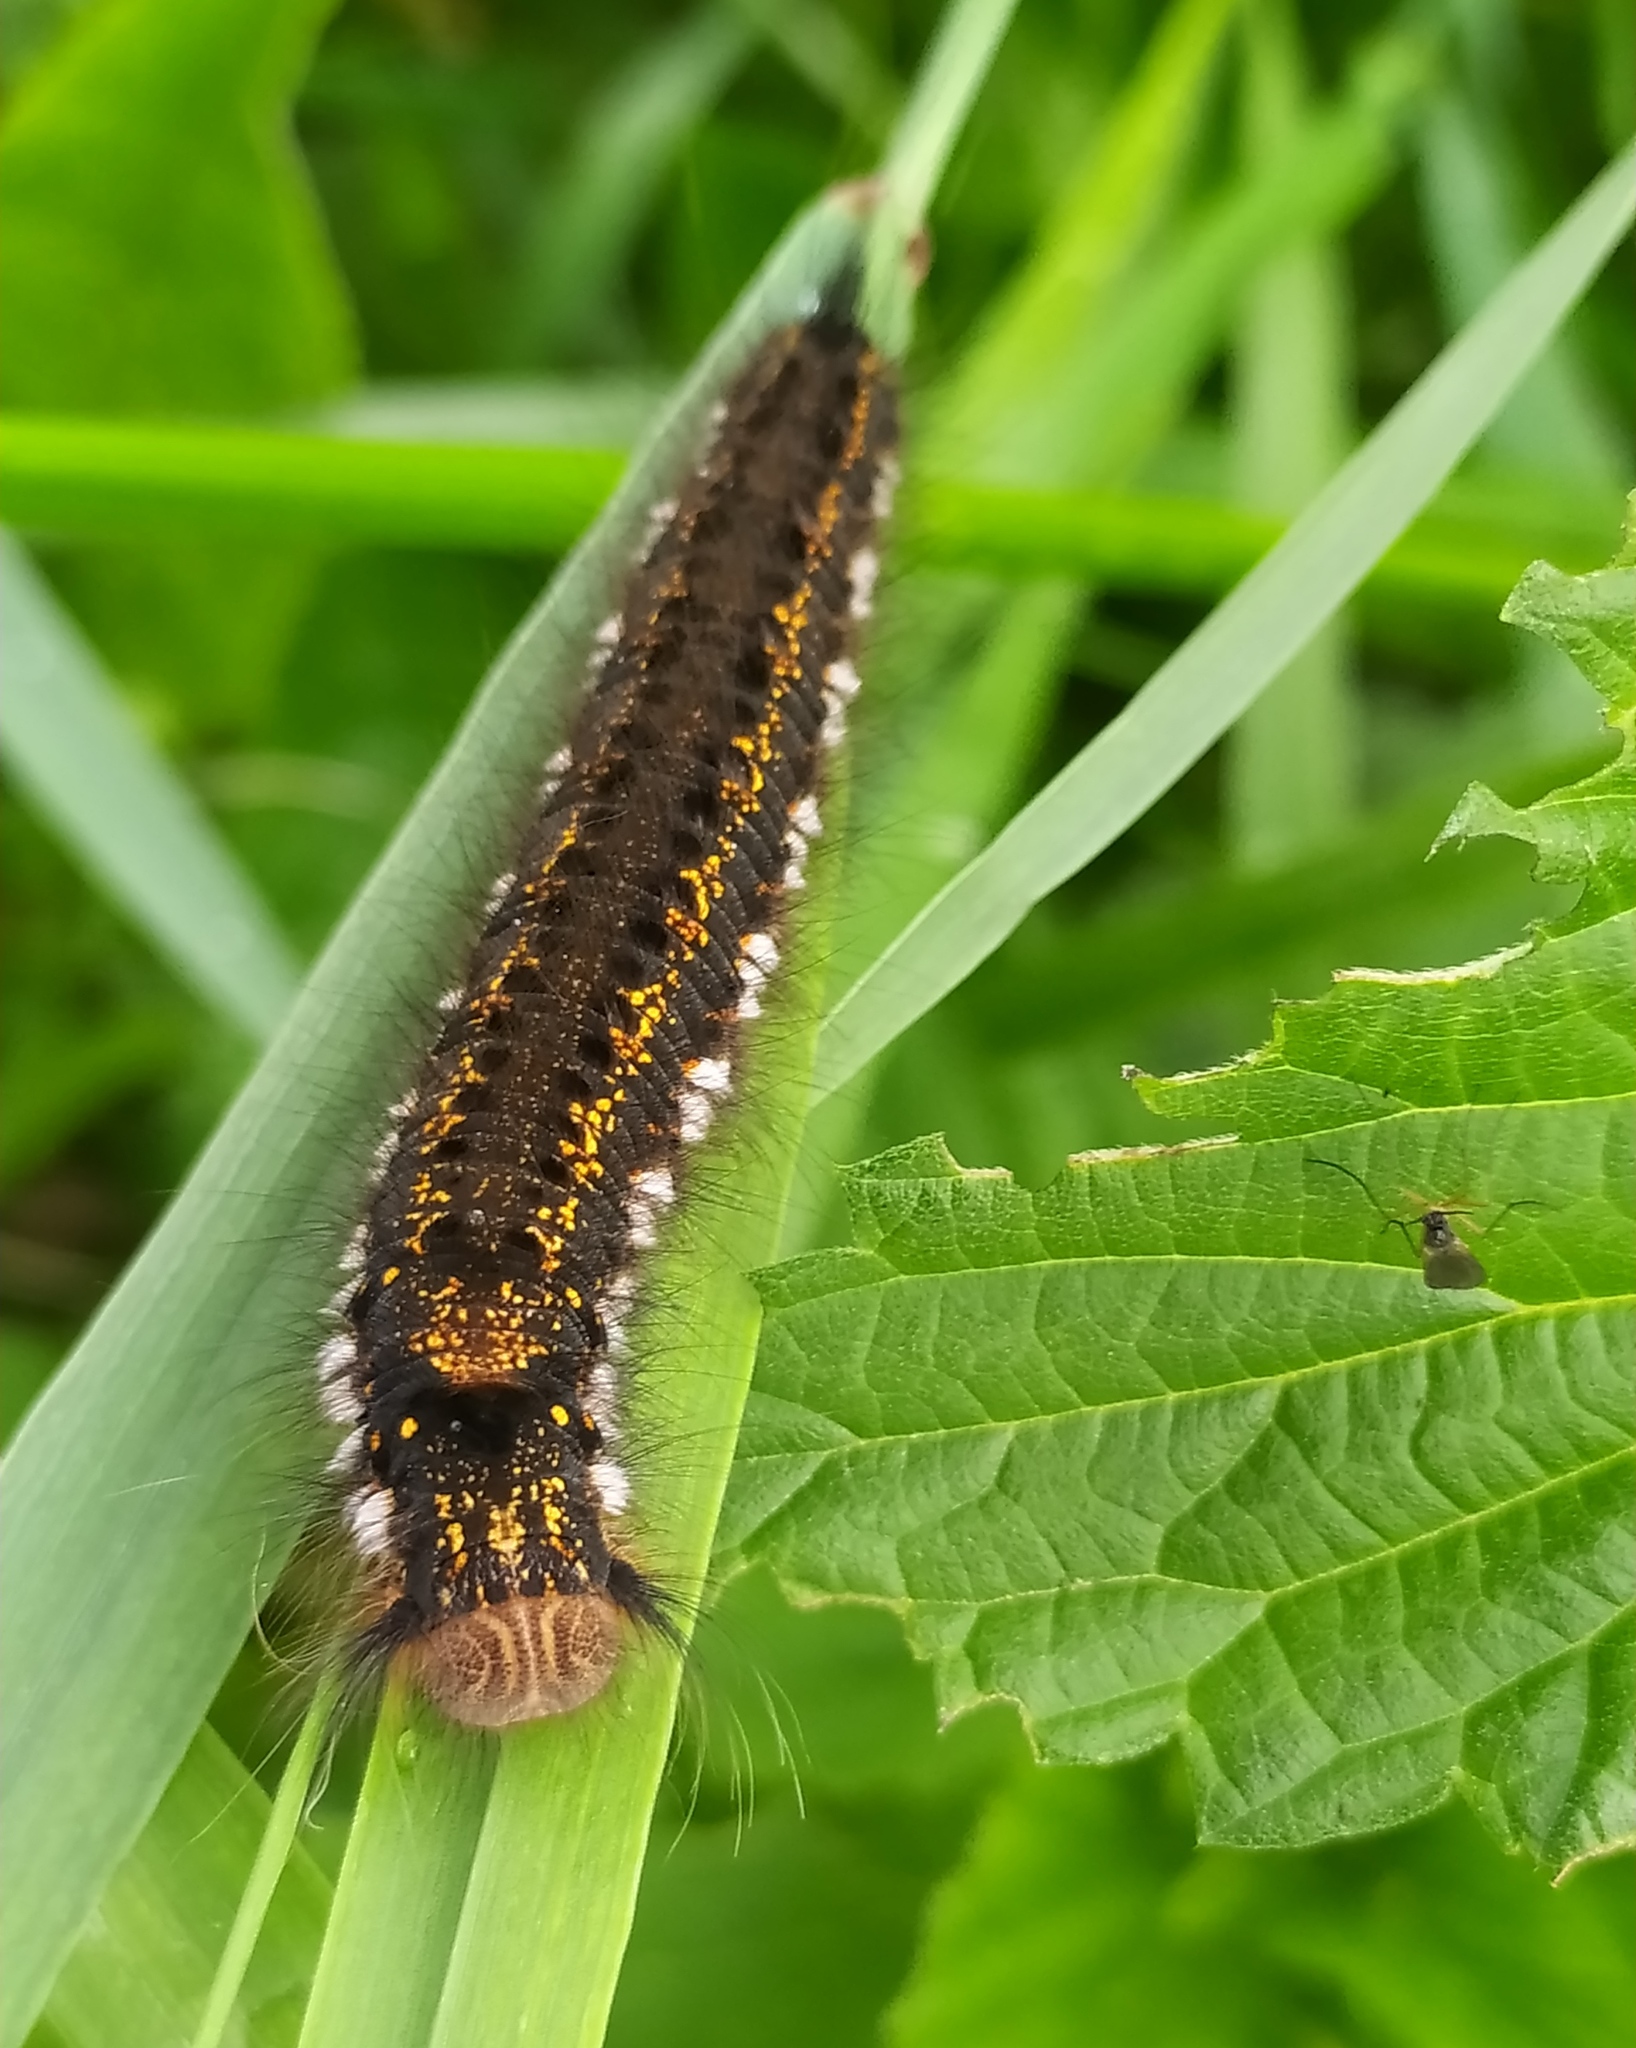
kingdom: Animalia
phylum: Arthropoda
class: Insecta
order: Lepidoptera
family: Lasiocampidae
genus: Euthrix
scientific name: Euthrix potatoria
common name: Drinker
